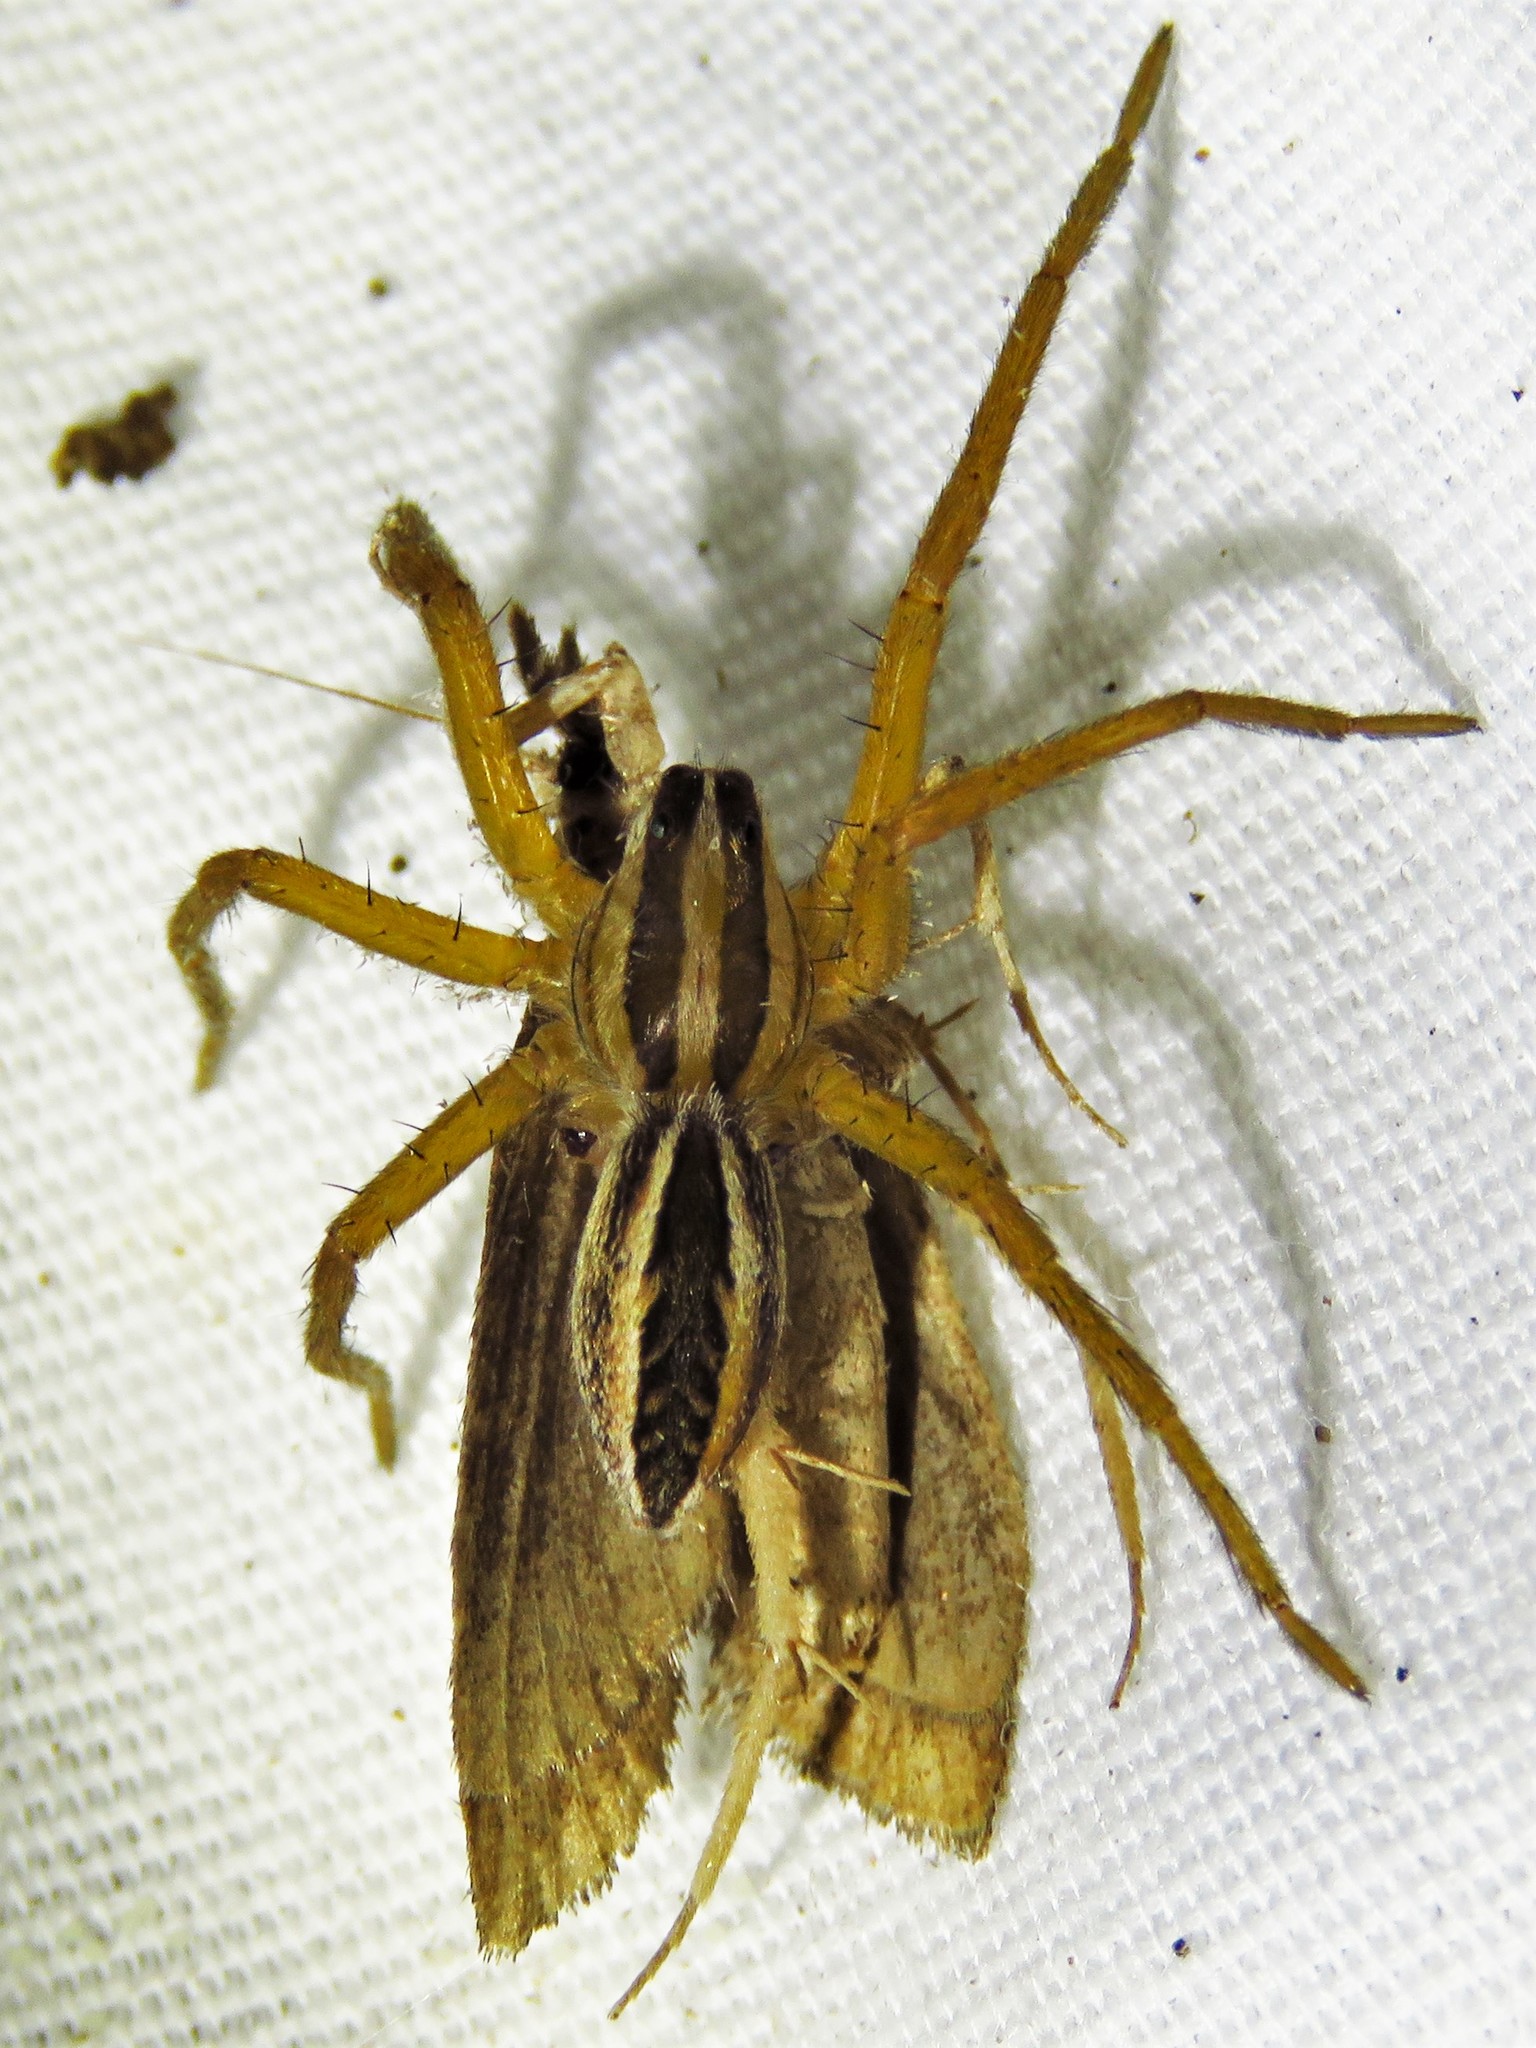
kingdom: Animalia
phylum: Arthropoda
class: Arachnida
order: Araneae
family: Lycosidae
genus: Rabidosa
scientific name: Rabidosa rabida
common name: Rabid wolf spider
